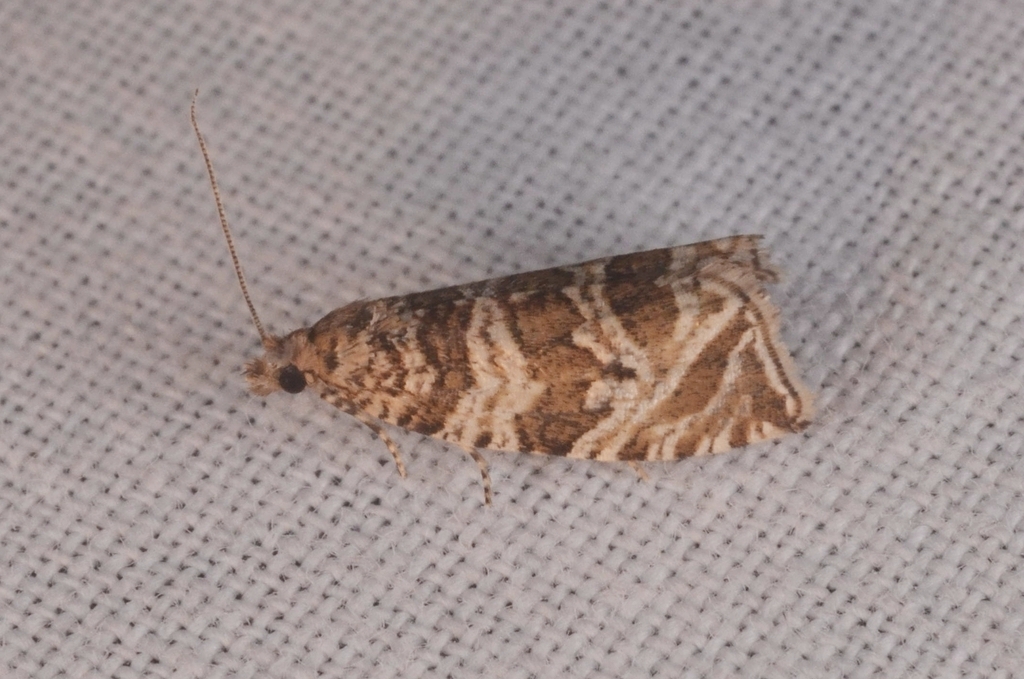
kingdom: Animalia
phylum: Arthropoda
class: Insecta
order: Lepidoptera
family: Tortricidae
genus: Syricoris
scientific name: Syricoris rivulana
